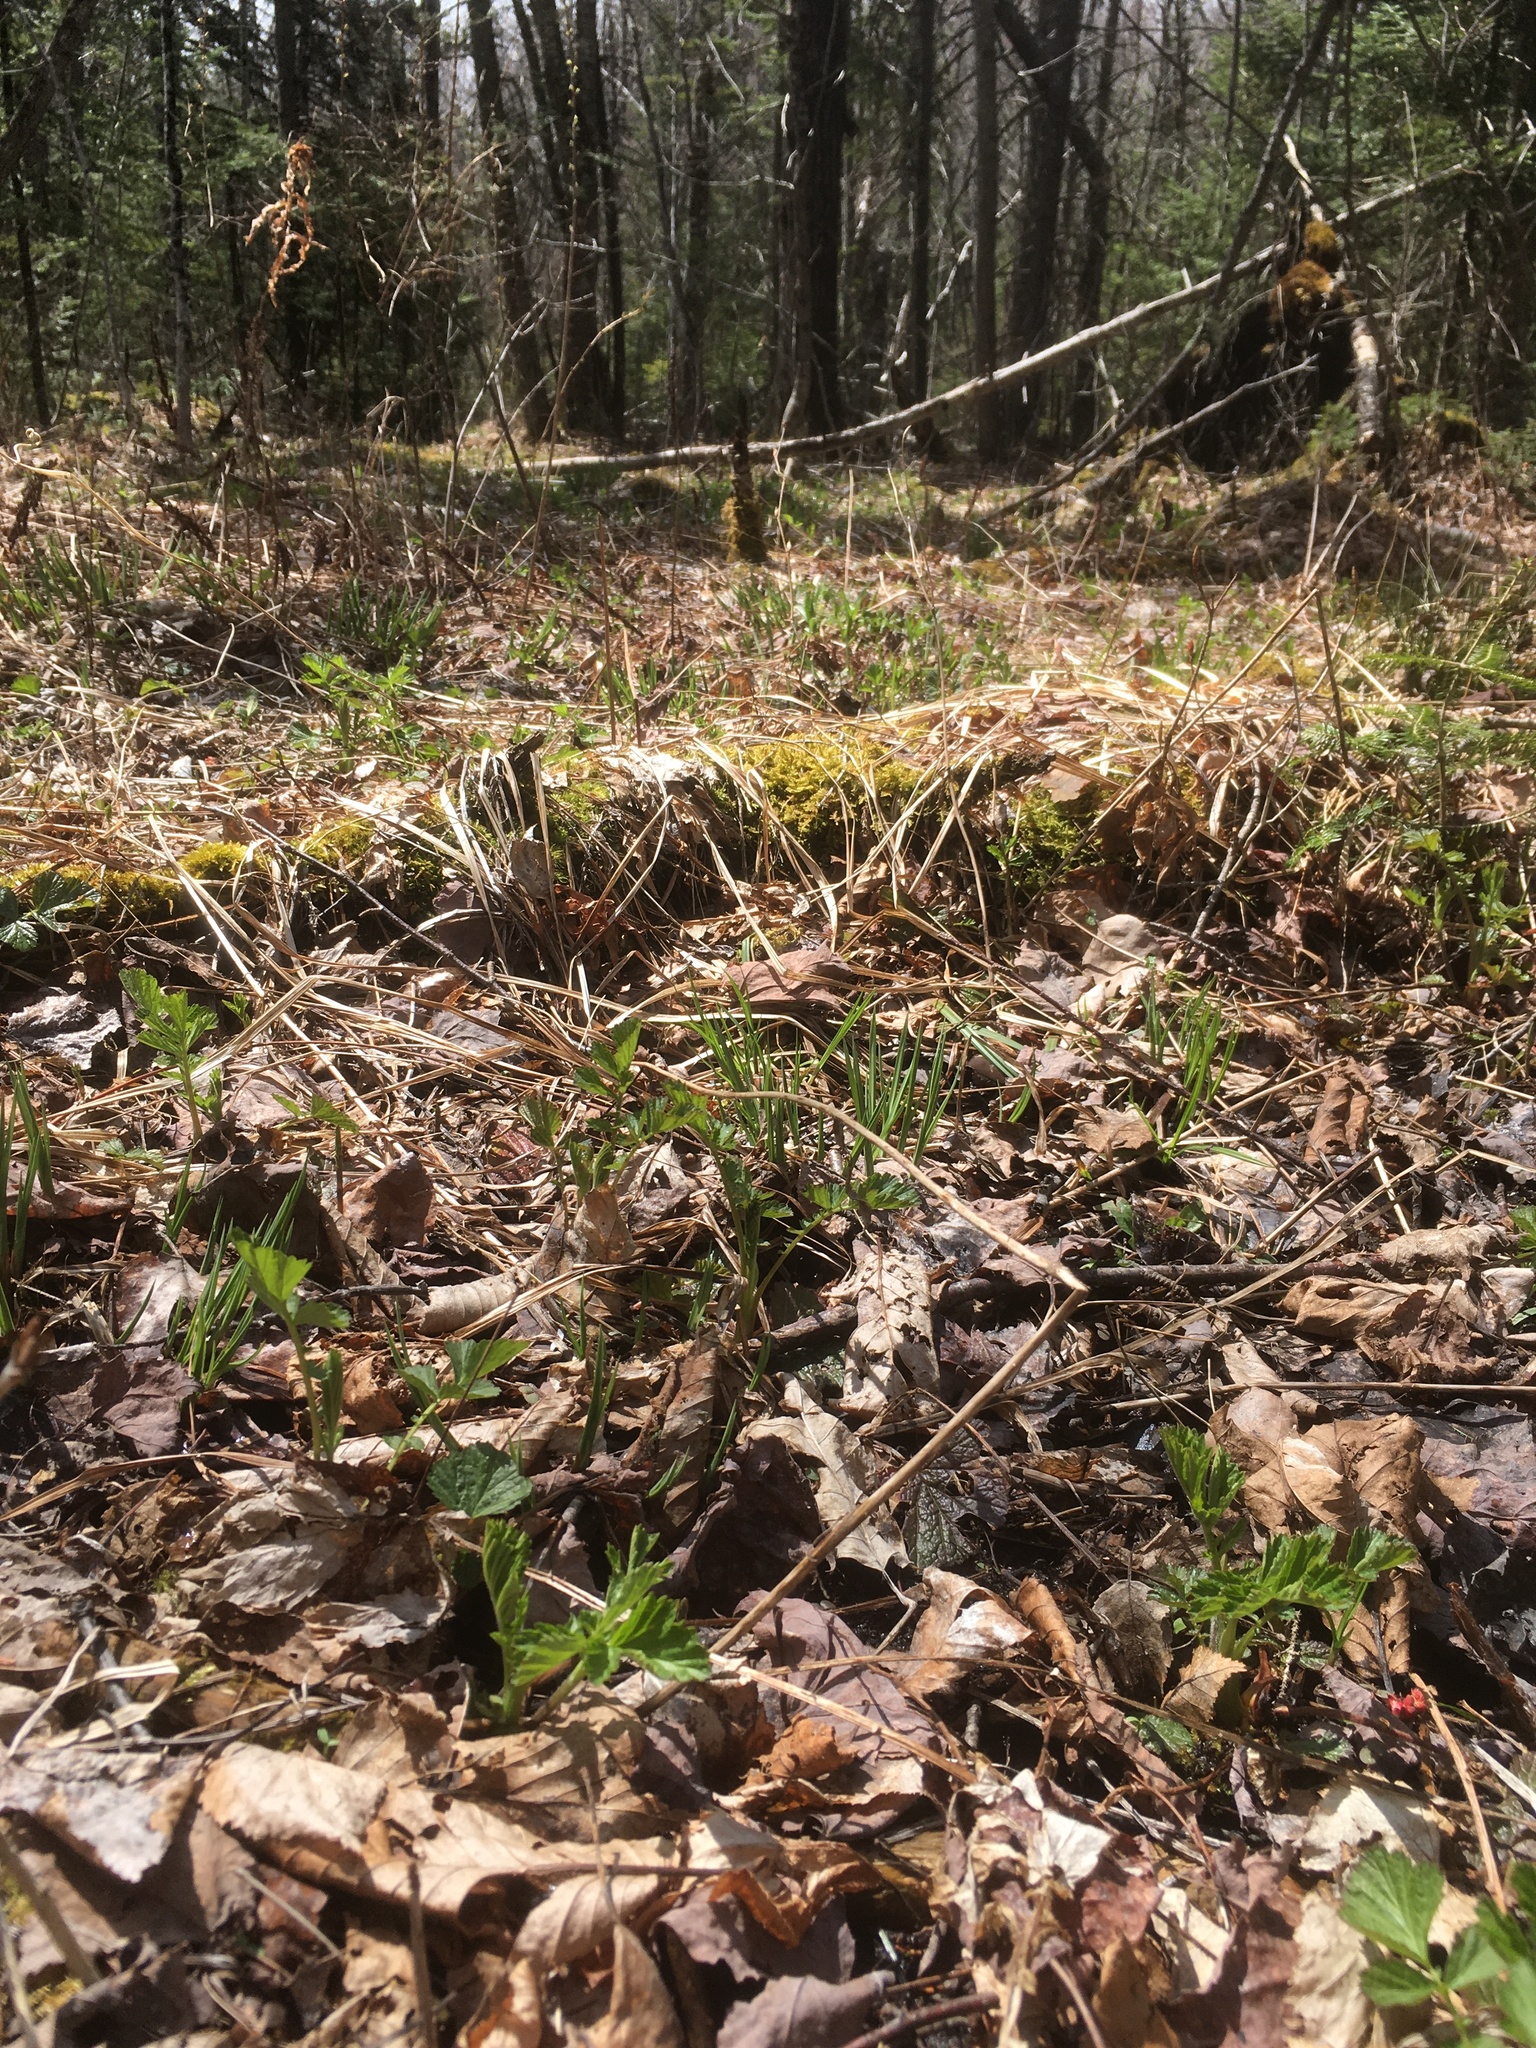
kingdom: Plantae
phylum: Tracheophyta
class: Magnoliopsida
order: Rosales
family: Rosaceae
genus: Geum
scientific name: Geum rivale
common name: Water avens
